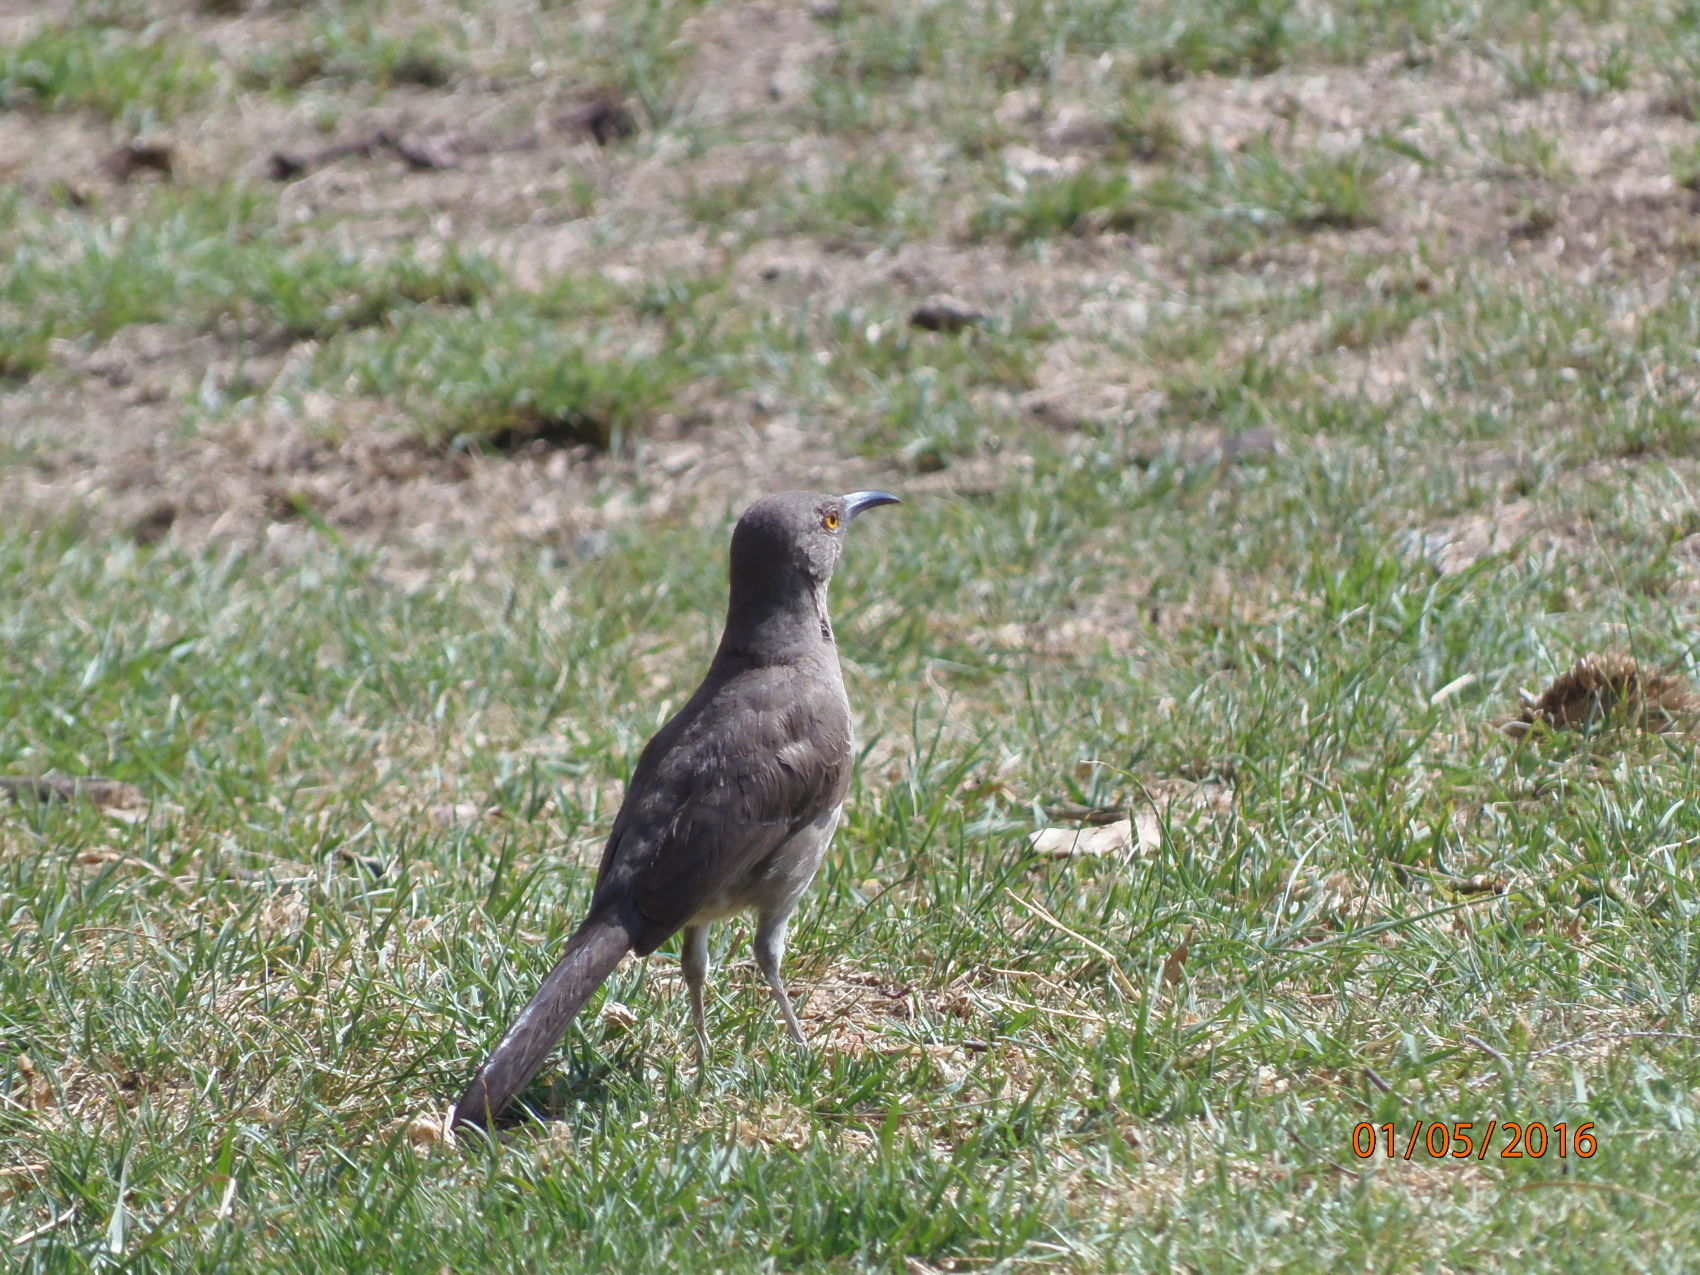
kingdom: Animalia
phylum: Chordata
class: Aves
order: Passeriformes
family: Mimidae
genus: Toxostoma
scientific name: Toxostoma curvirostre
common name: Curve-billed thrasher
